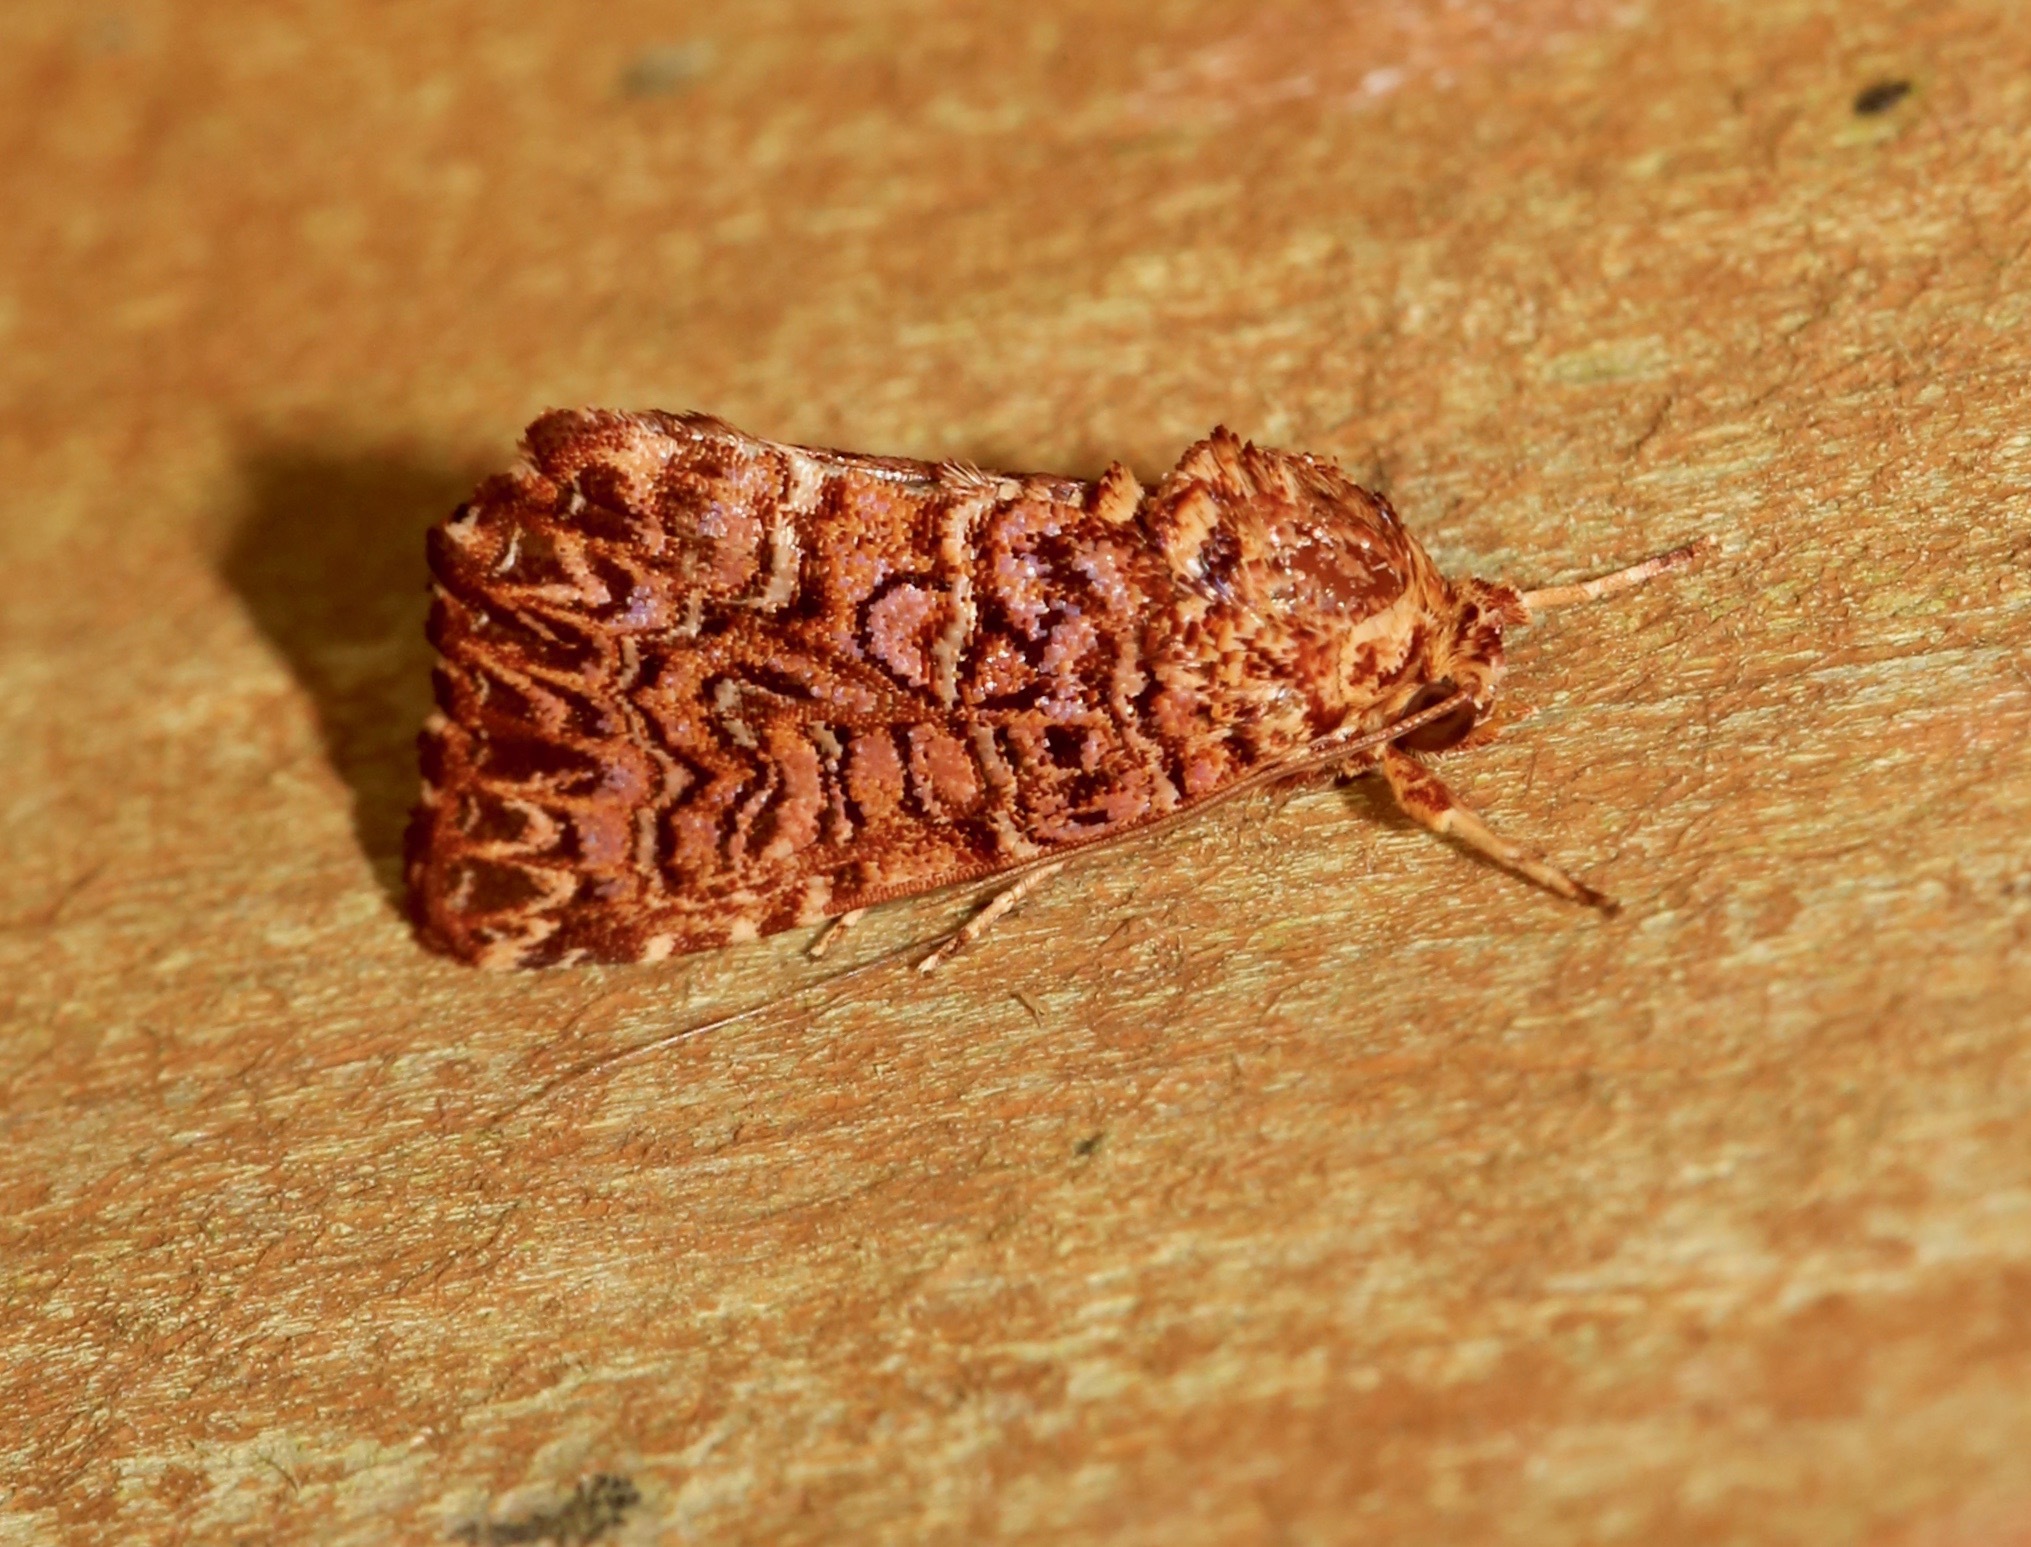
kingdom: Animalia
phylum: Arthropoda
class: Insecta
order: Lepidoptera
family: Noctuidae
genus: Callopistria
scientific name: Callopistria granitosa
